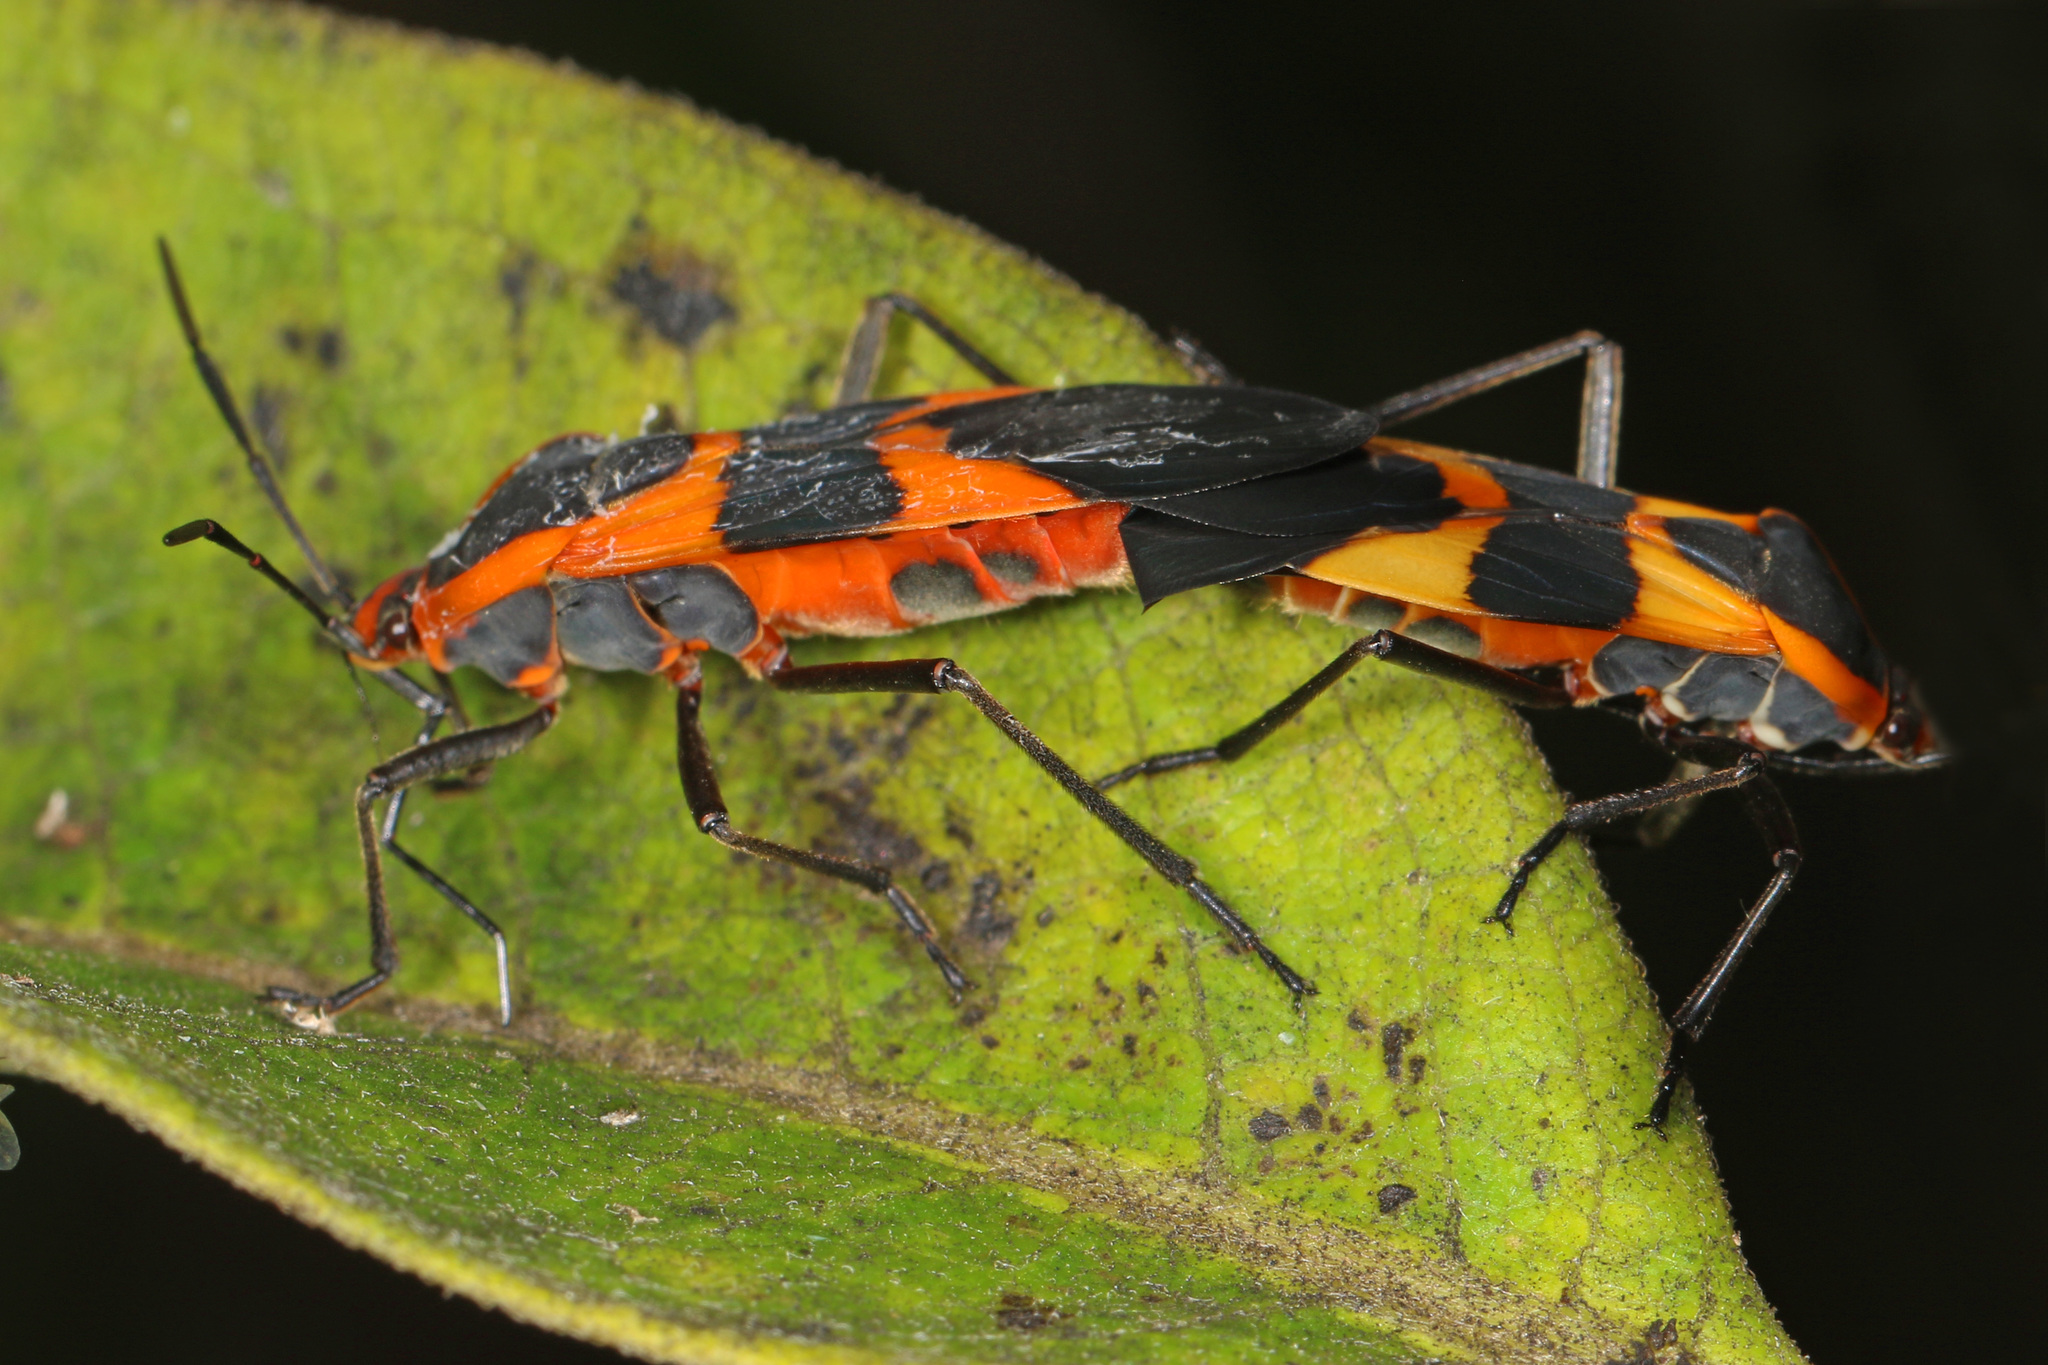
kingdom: Animalia
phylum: Arthropoda
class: Insecta
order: Hemiptera
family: Lygaeidae
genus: Oncopeltus
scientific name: Oncopeltus fasciatus
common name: Large milkweed bug
